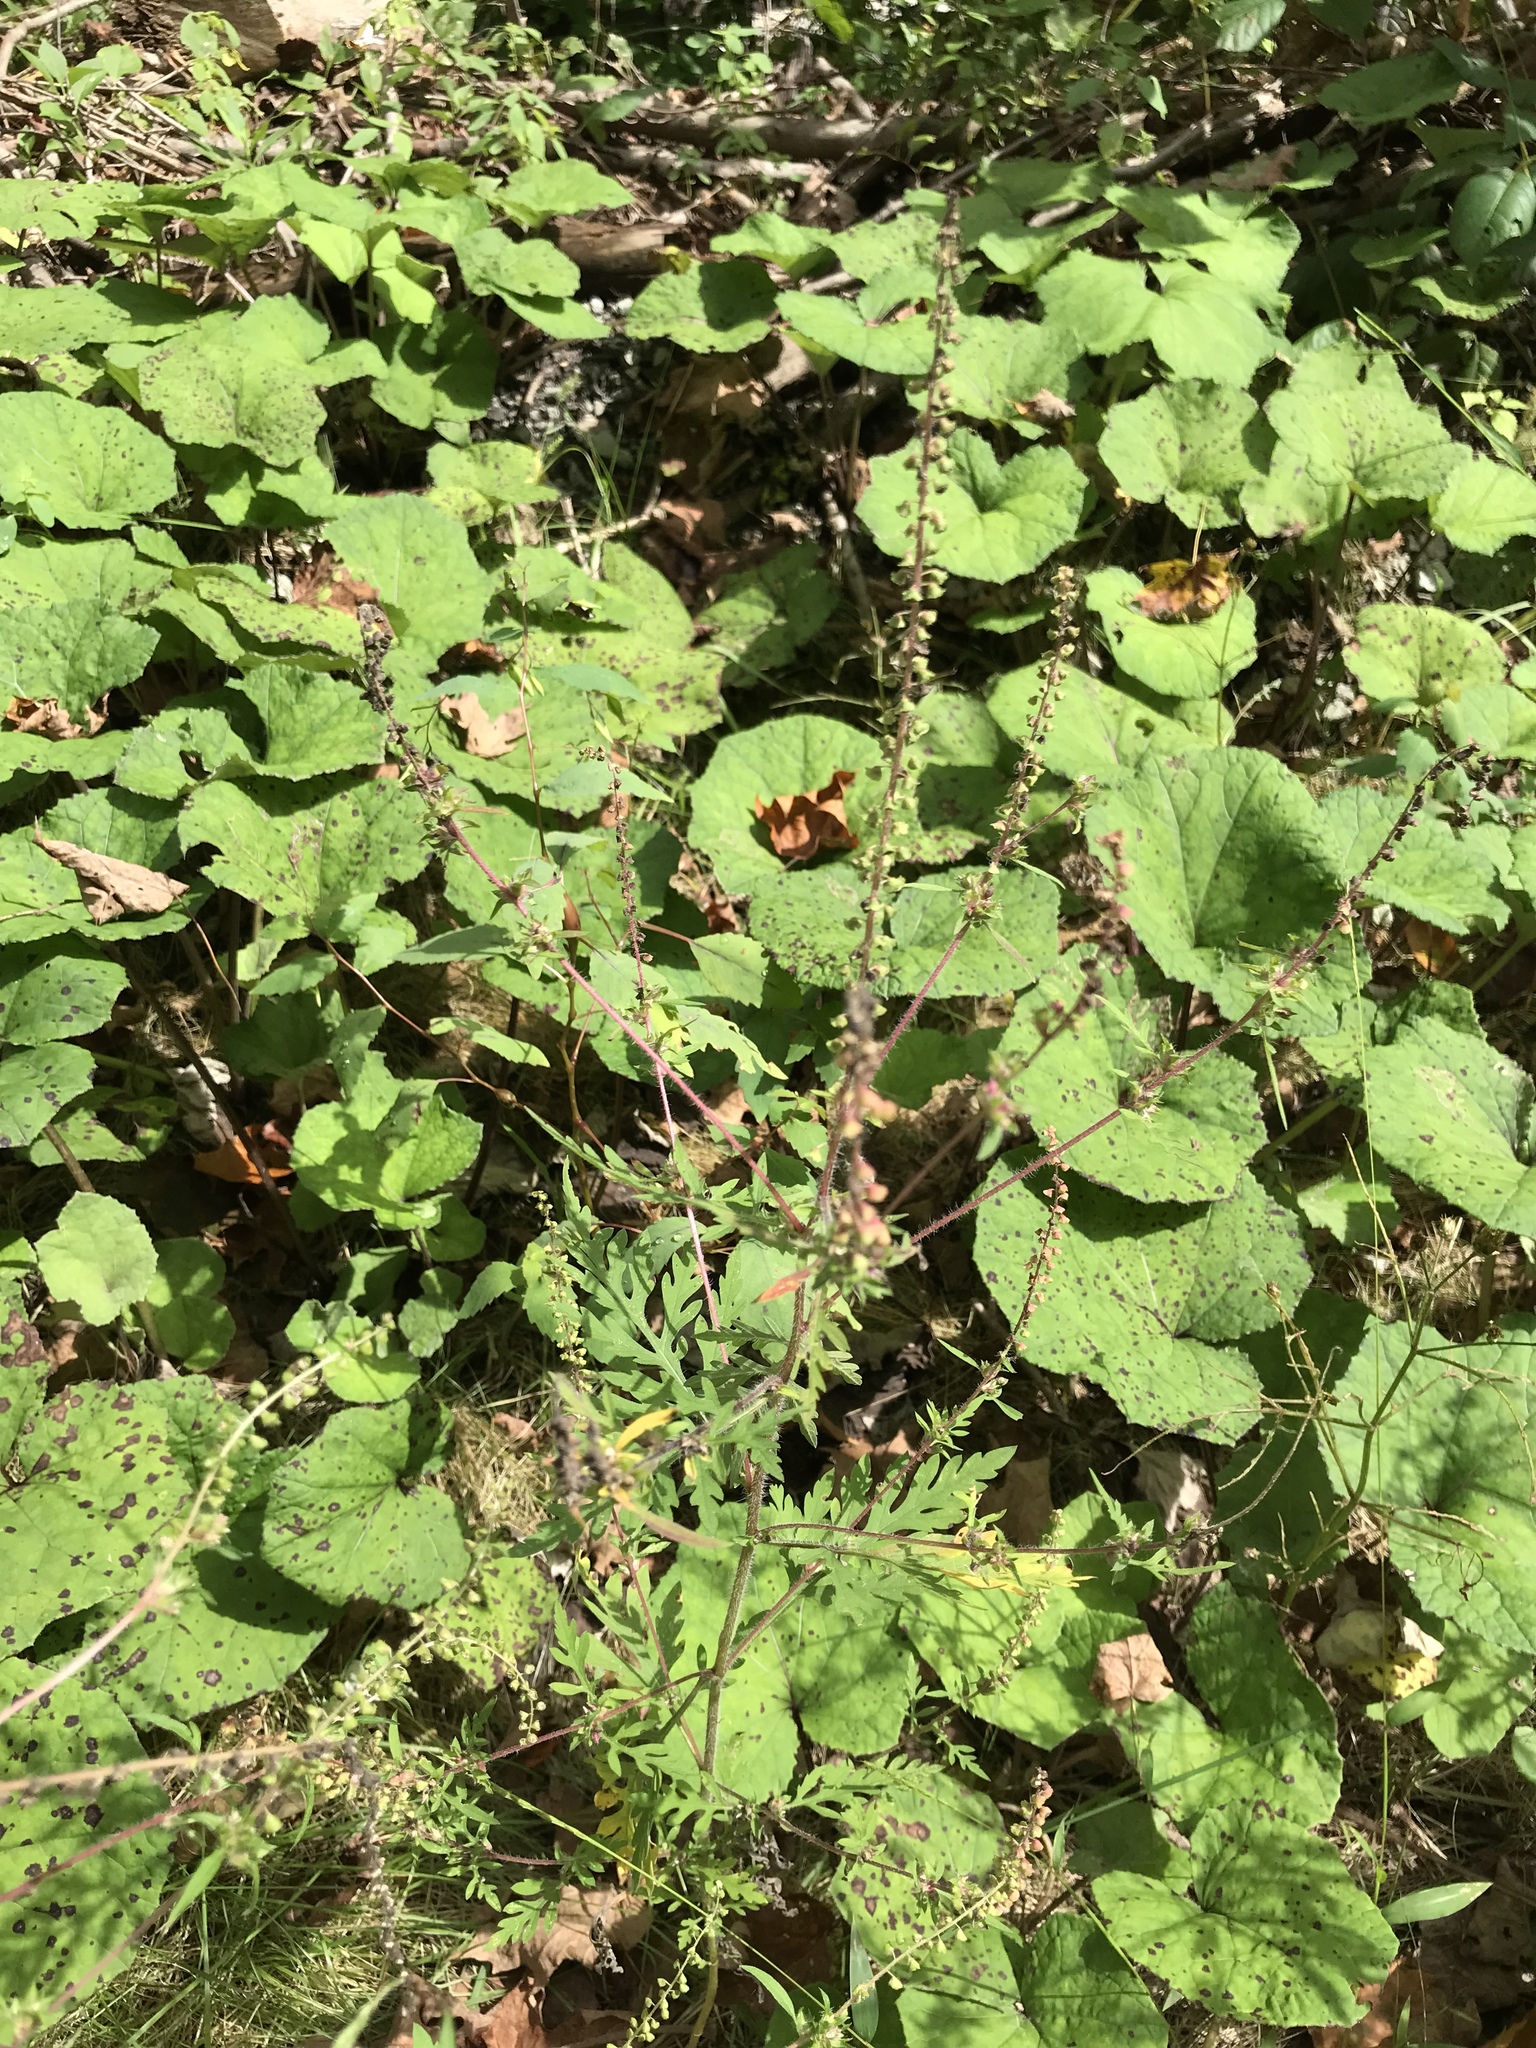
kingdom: Plantae
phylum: Tracheophyta
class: Magnoliopsida
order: Asterales
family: Asteraceae
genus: Ambrosia
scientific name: Ambrosia artemisiifolia
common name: Annual ragweed
